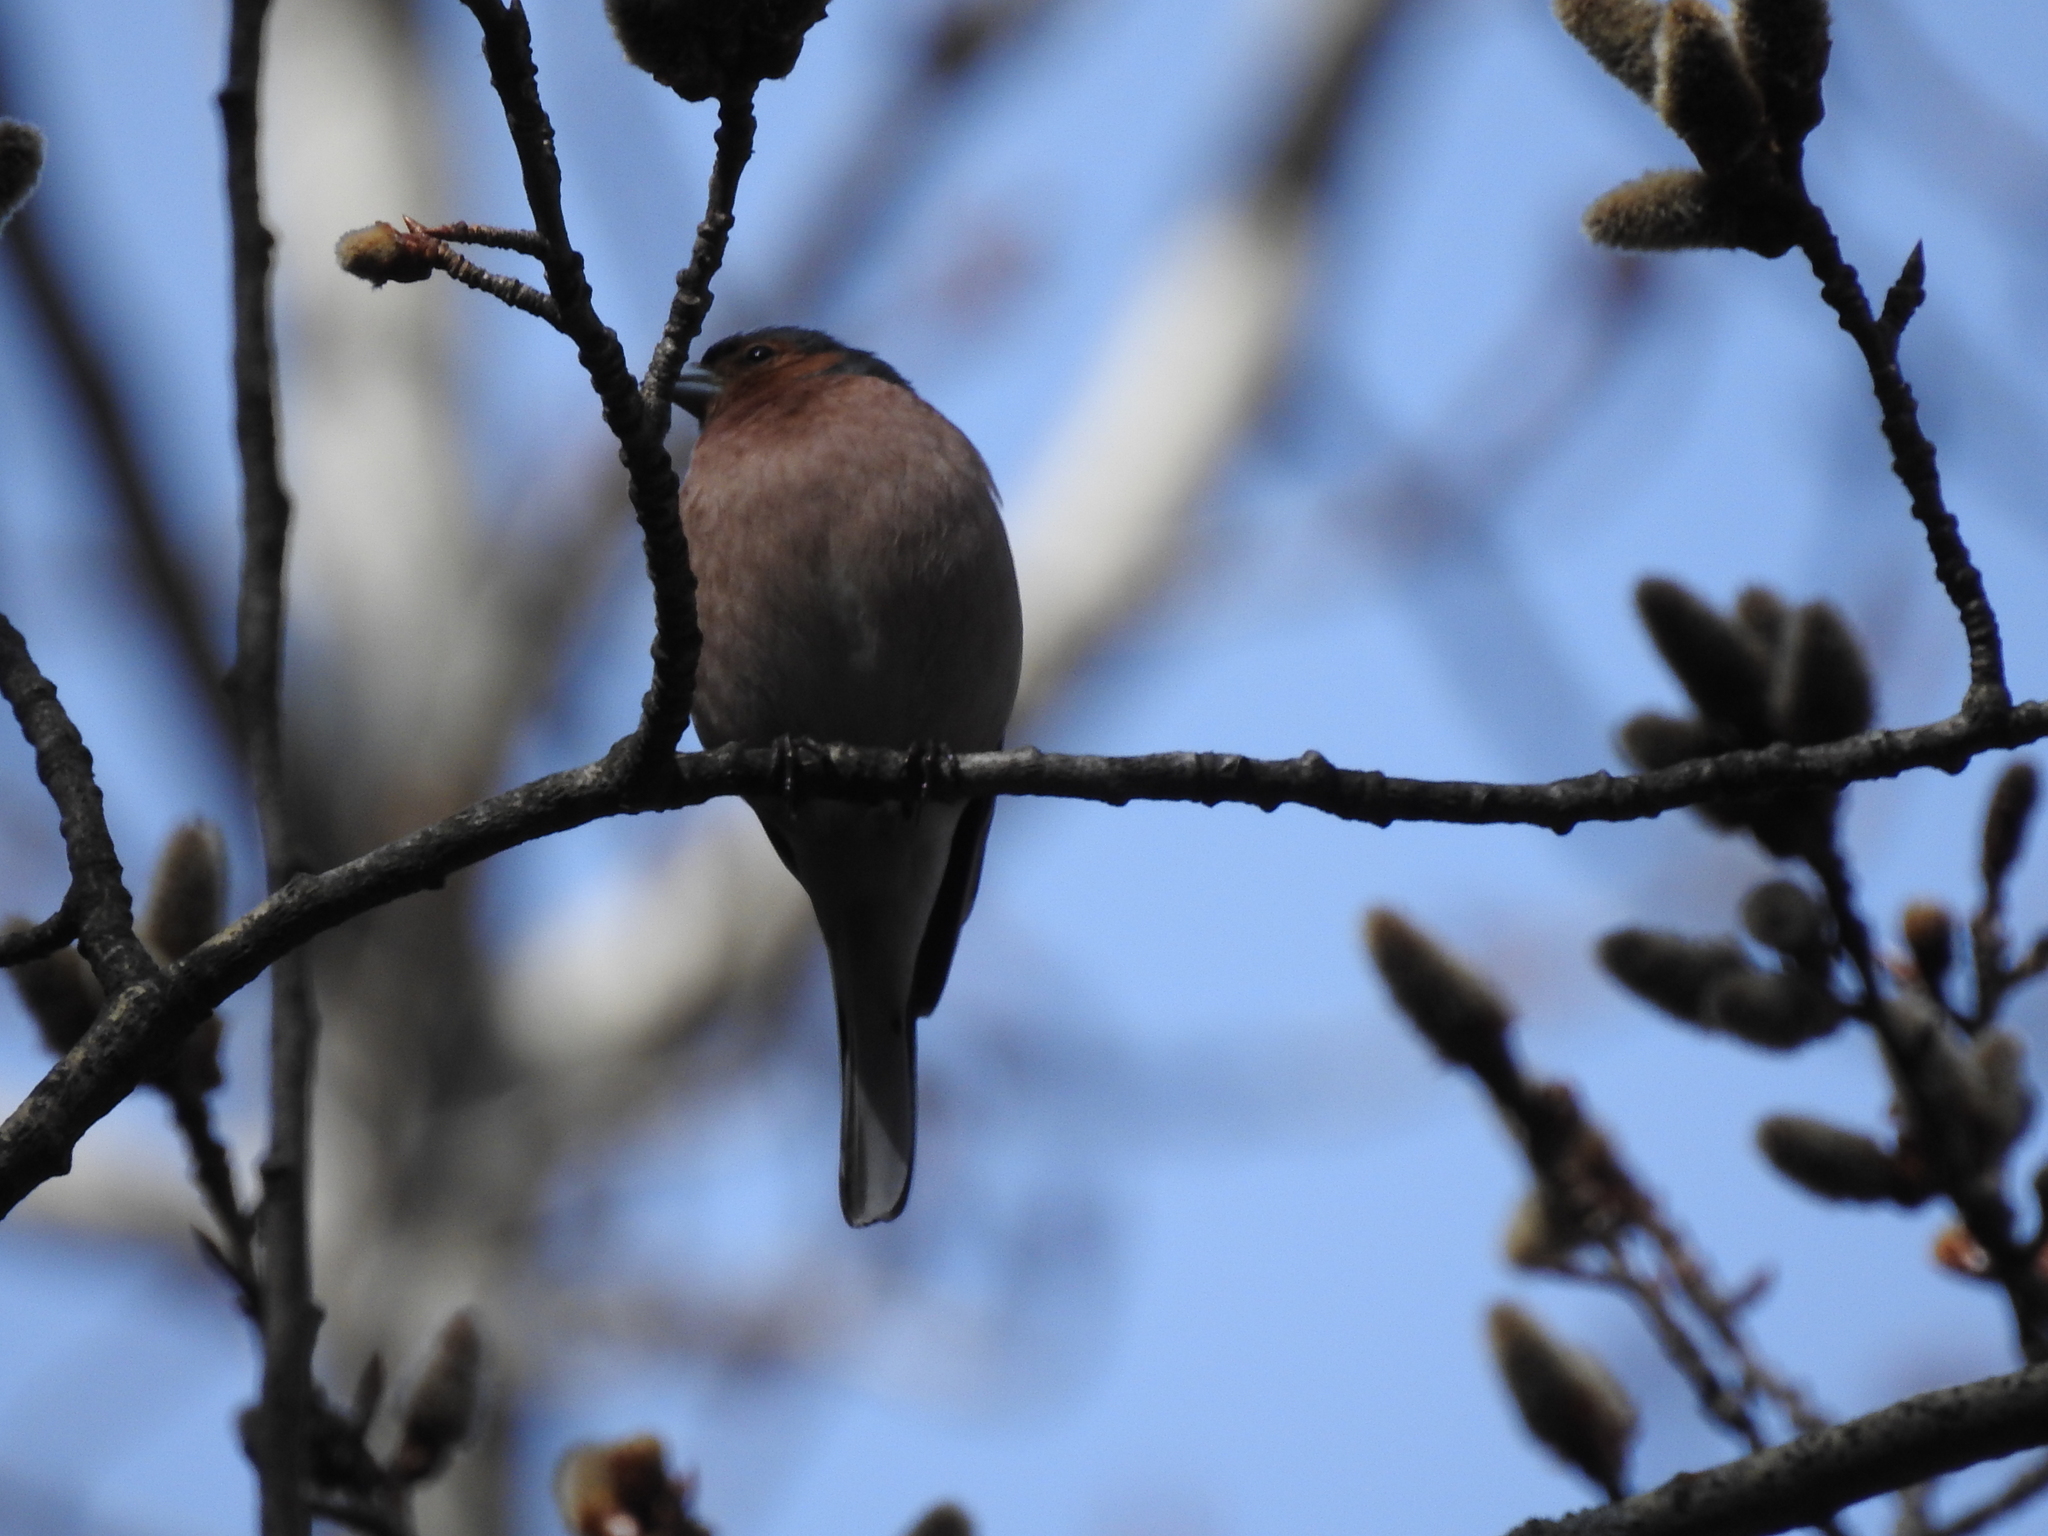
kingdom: Animalia
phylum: Chordata
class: Aves
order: Passeriformes
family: Fringillidae
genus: Fringilla
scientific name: Fringilla coelebs
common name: Common chaffinch
